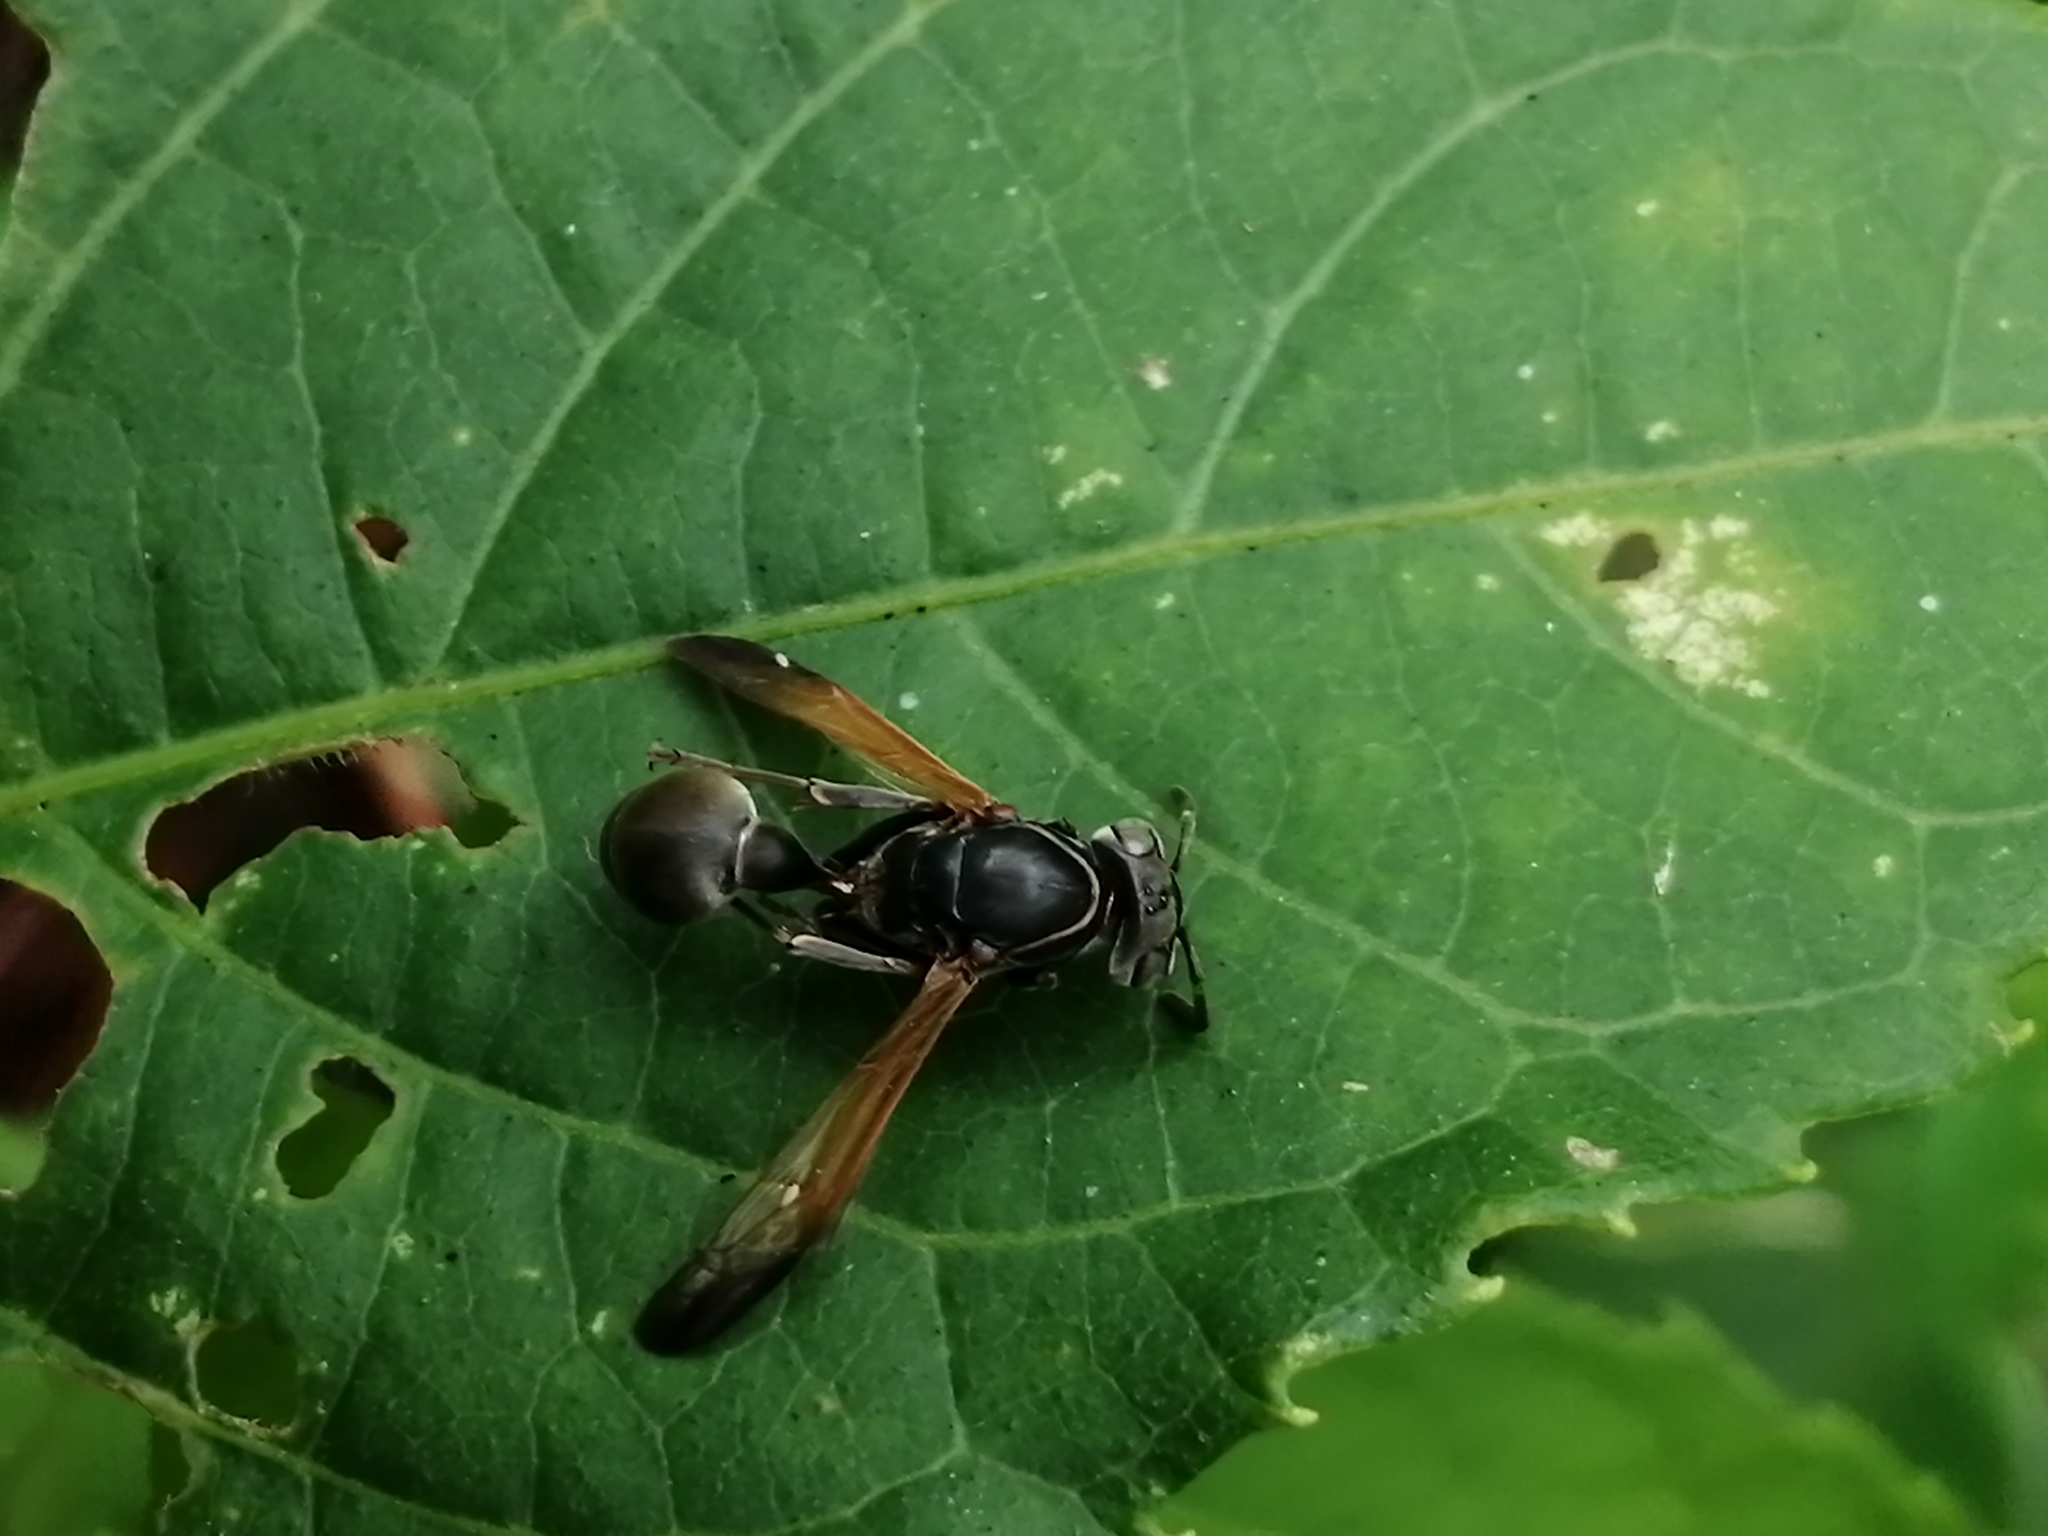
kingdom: Animalia
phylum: Arthropoda
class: Insecta
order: Hymenoptera
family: Eumenidae
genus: Polybia
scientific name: Polybia rejecta
